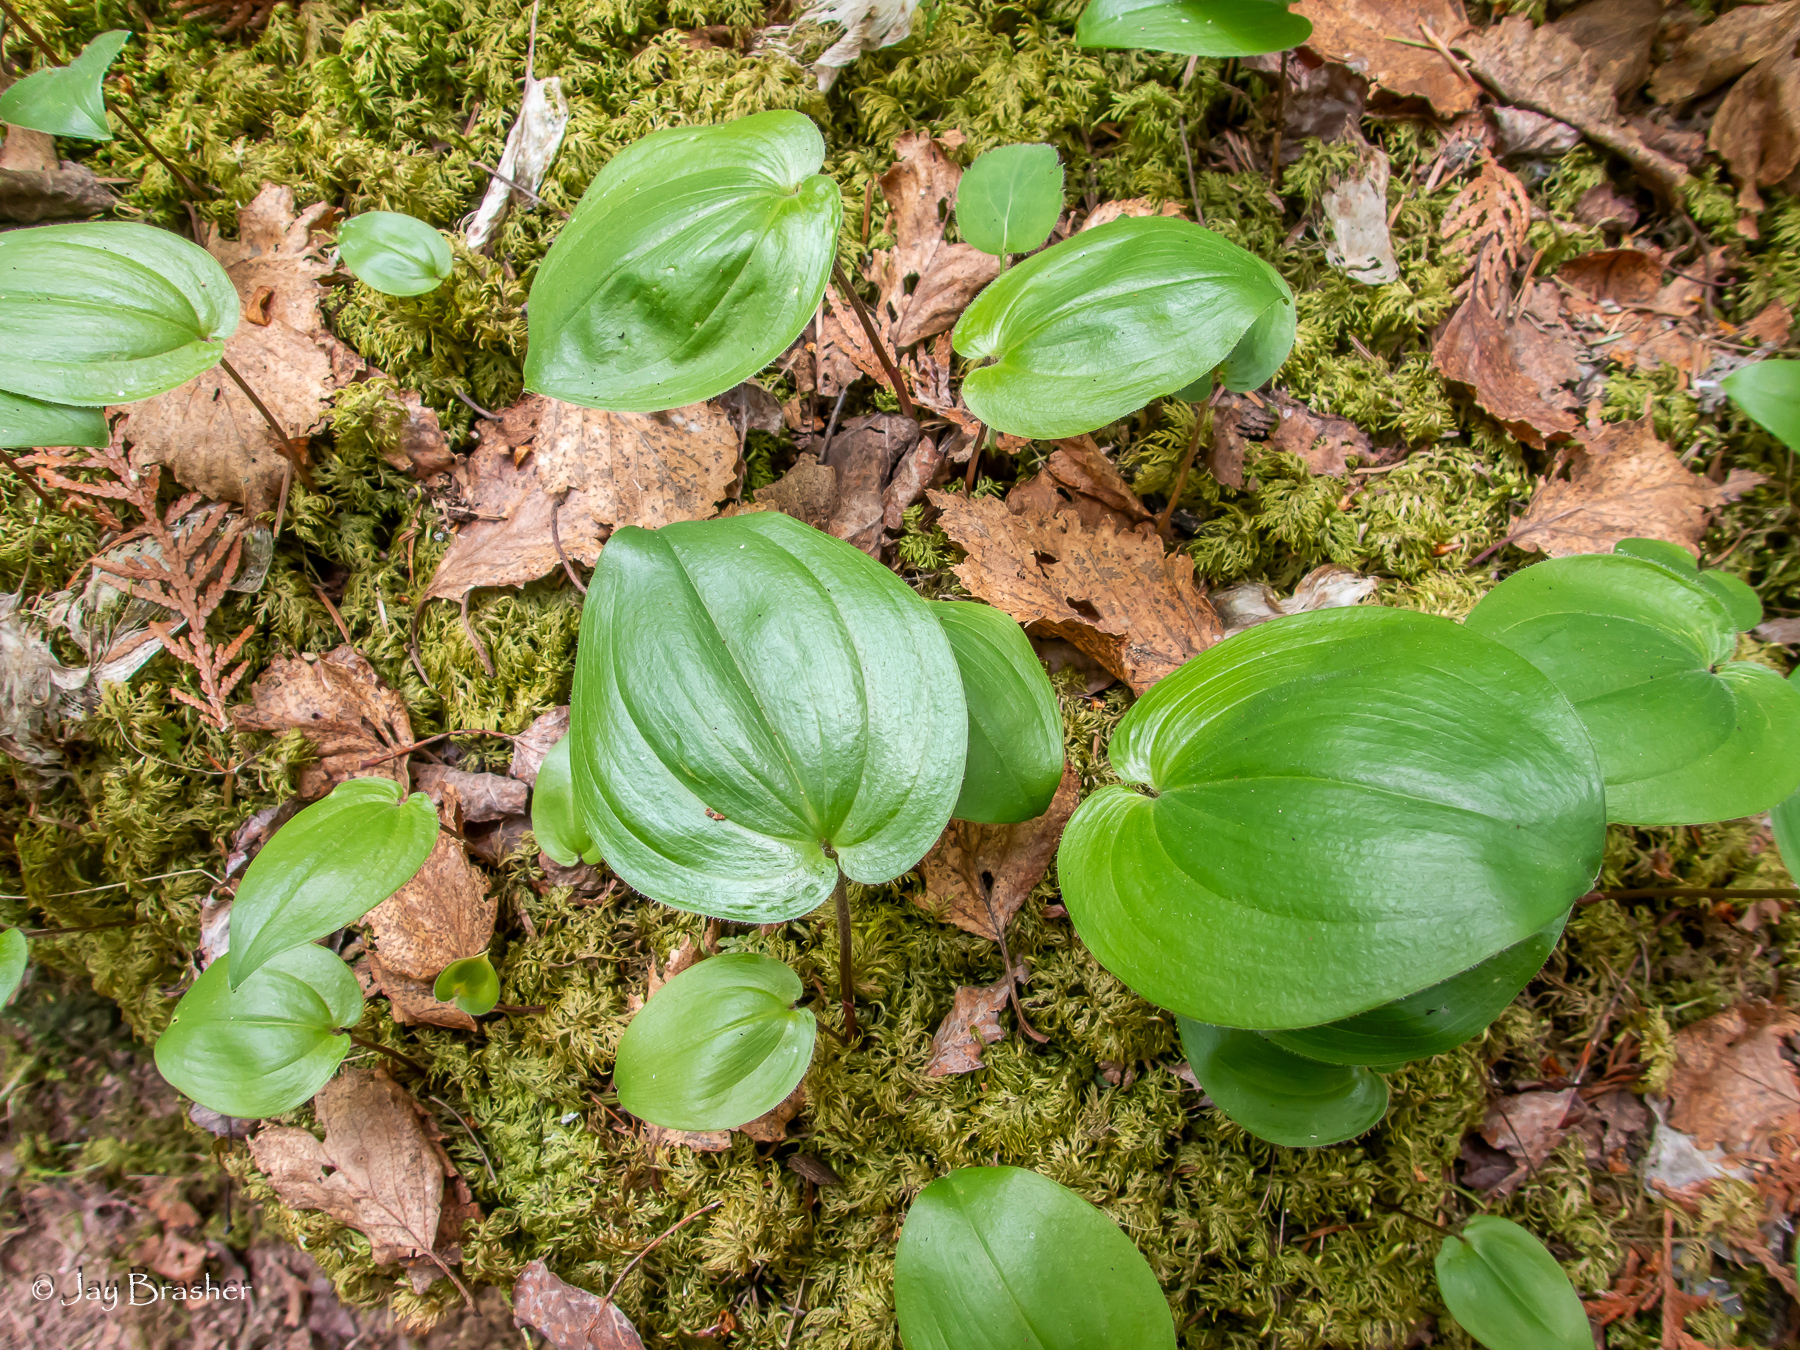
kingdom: Plantae
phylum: Tracheophyta
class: Liliopsida
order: Asparagales
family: Asparagaceae
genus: Maianthemum
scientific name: Maianthemum canadense
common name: False lily-of-the-valley
